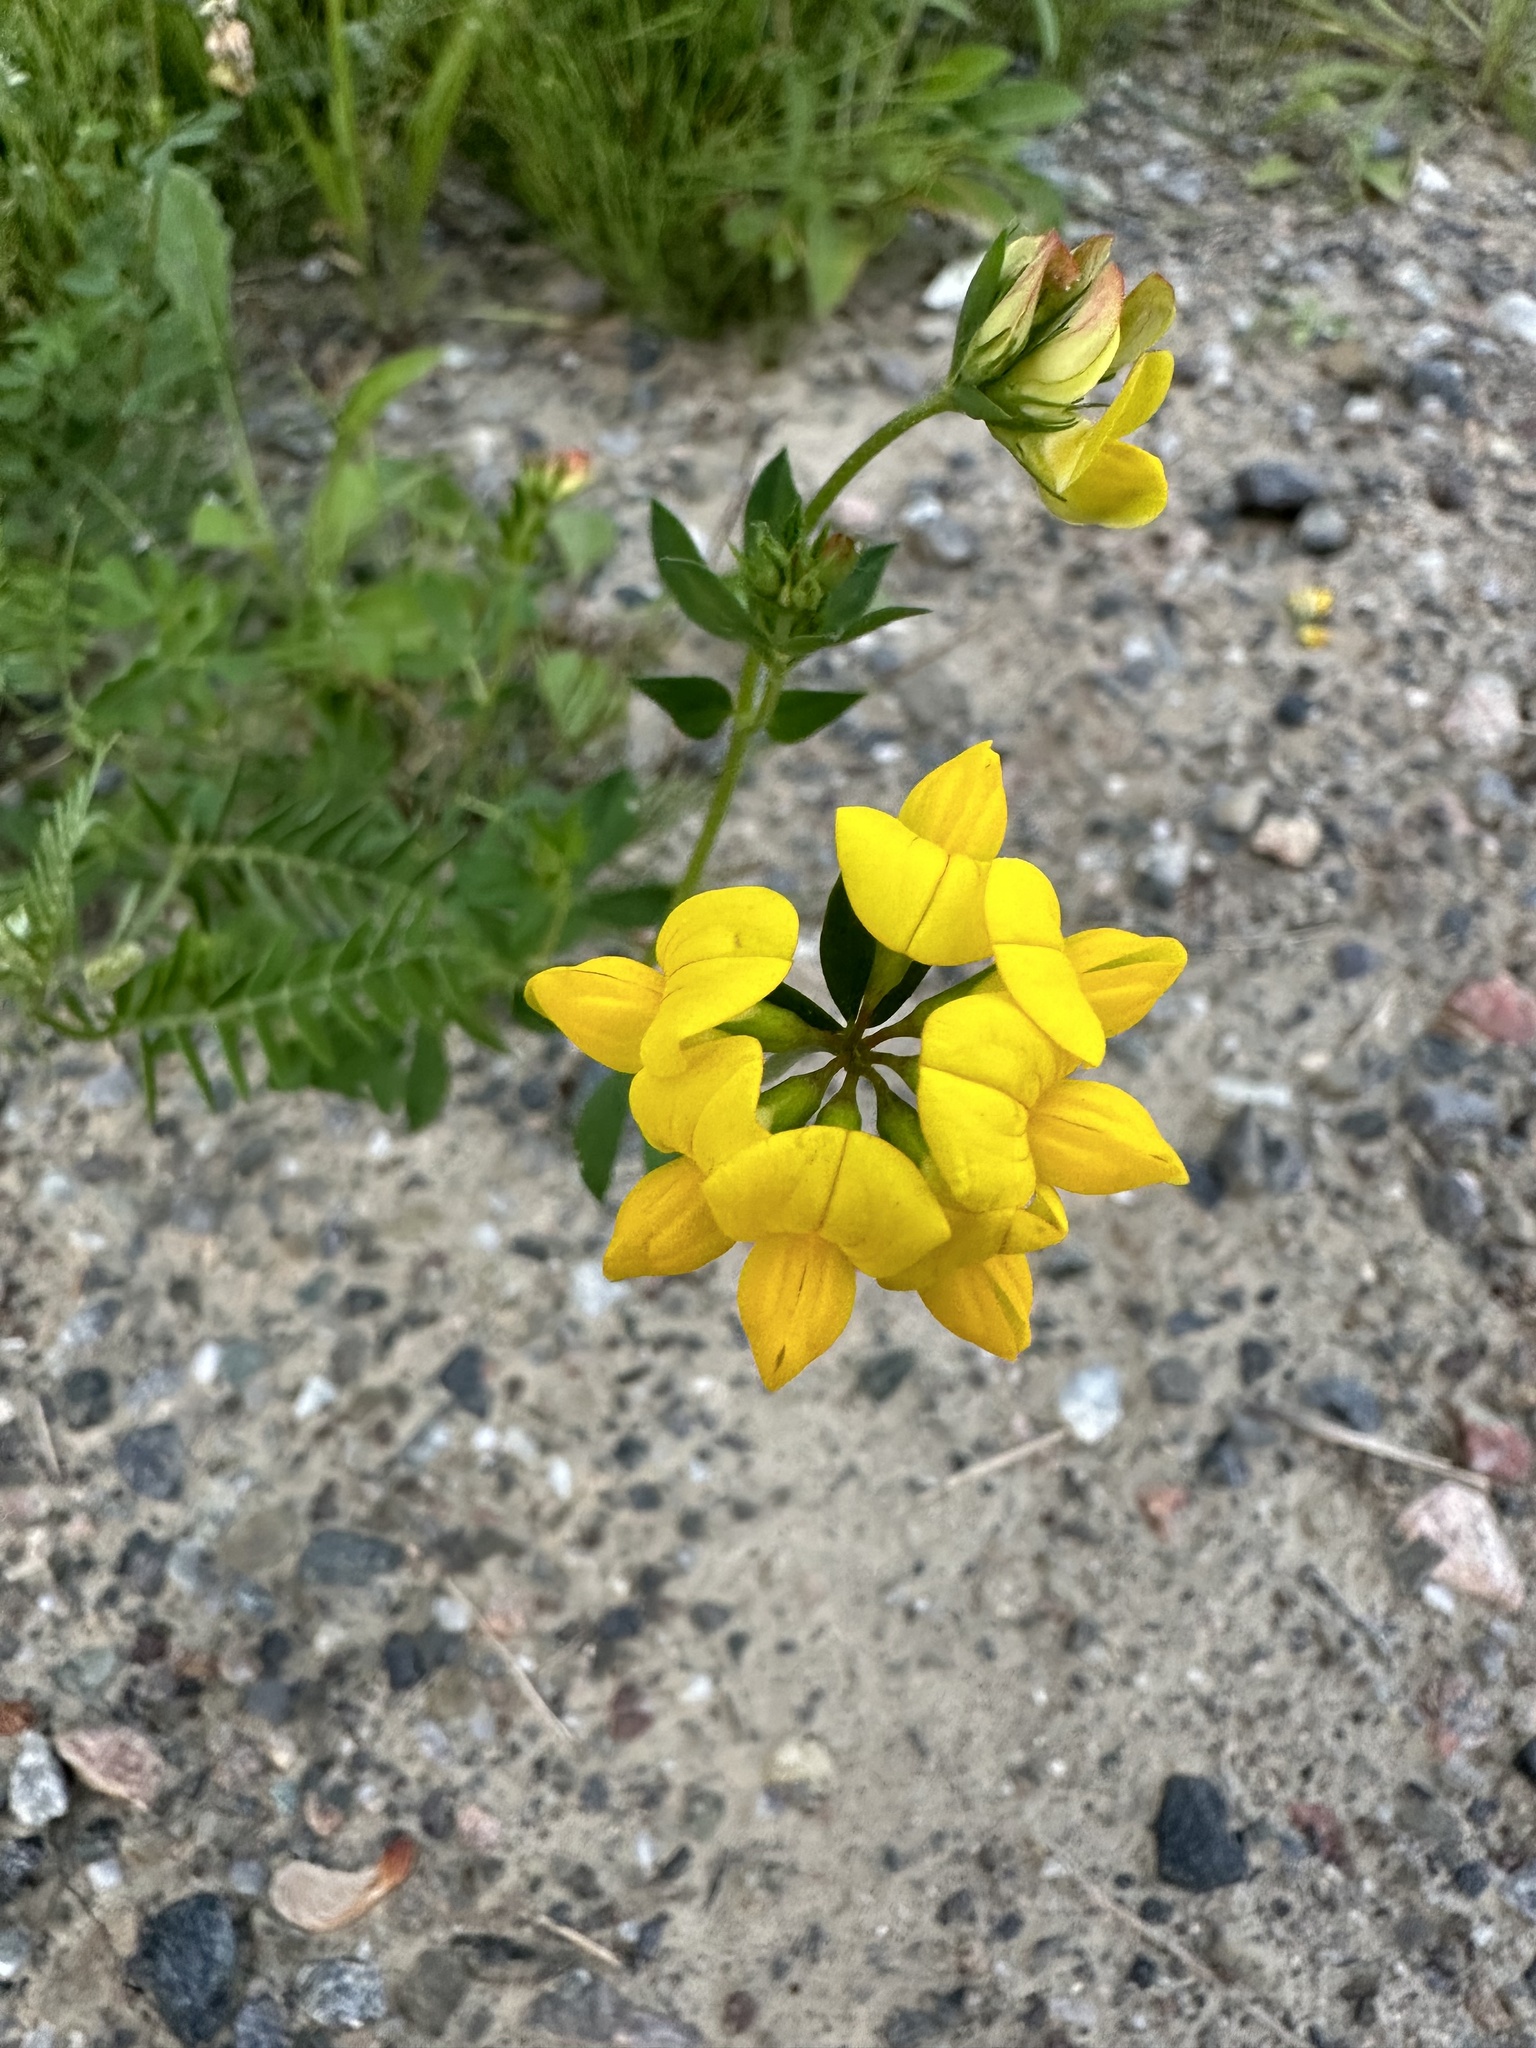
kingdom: Plantae
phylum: Tracheophyta
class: Magnoliopsida
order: Fabales
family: Fabaceae
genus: Lotus
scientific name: Lotus corniculatus
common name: Common bird's-foot-trefoil
